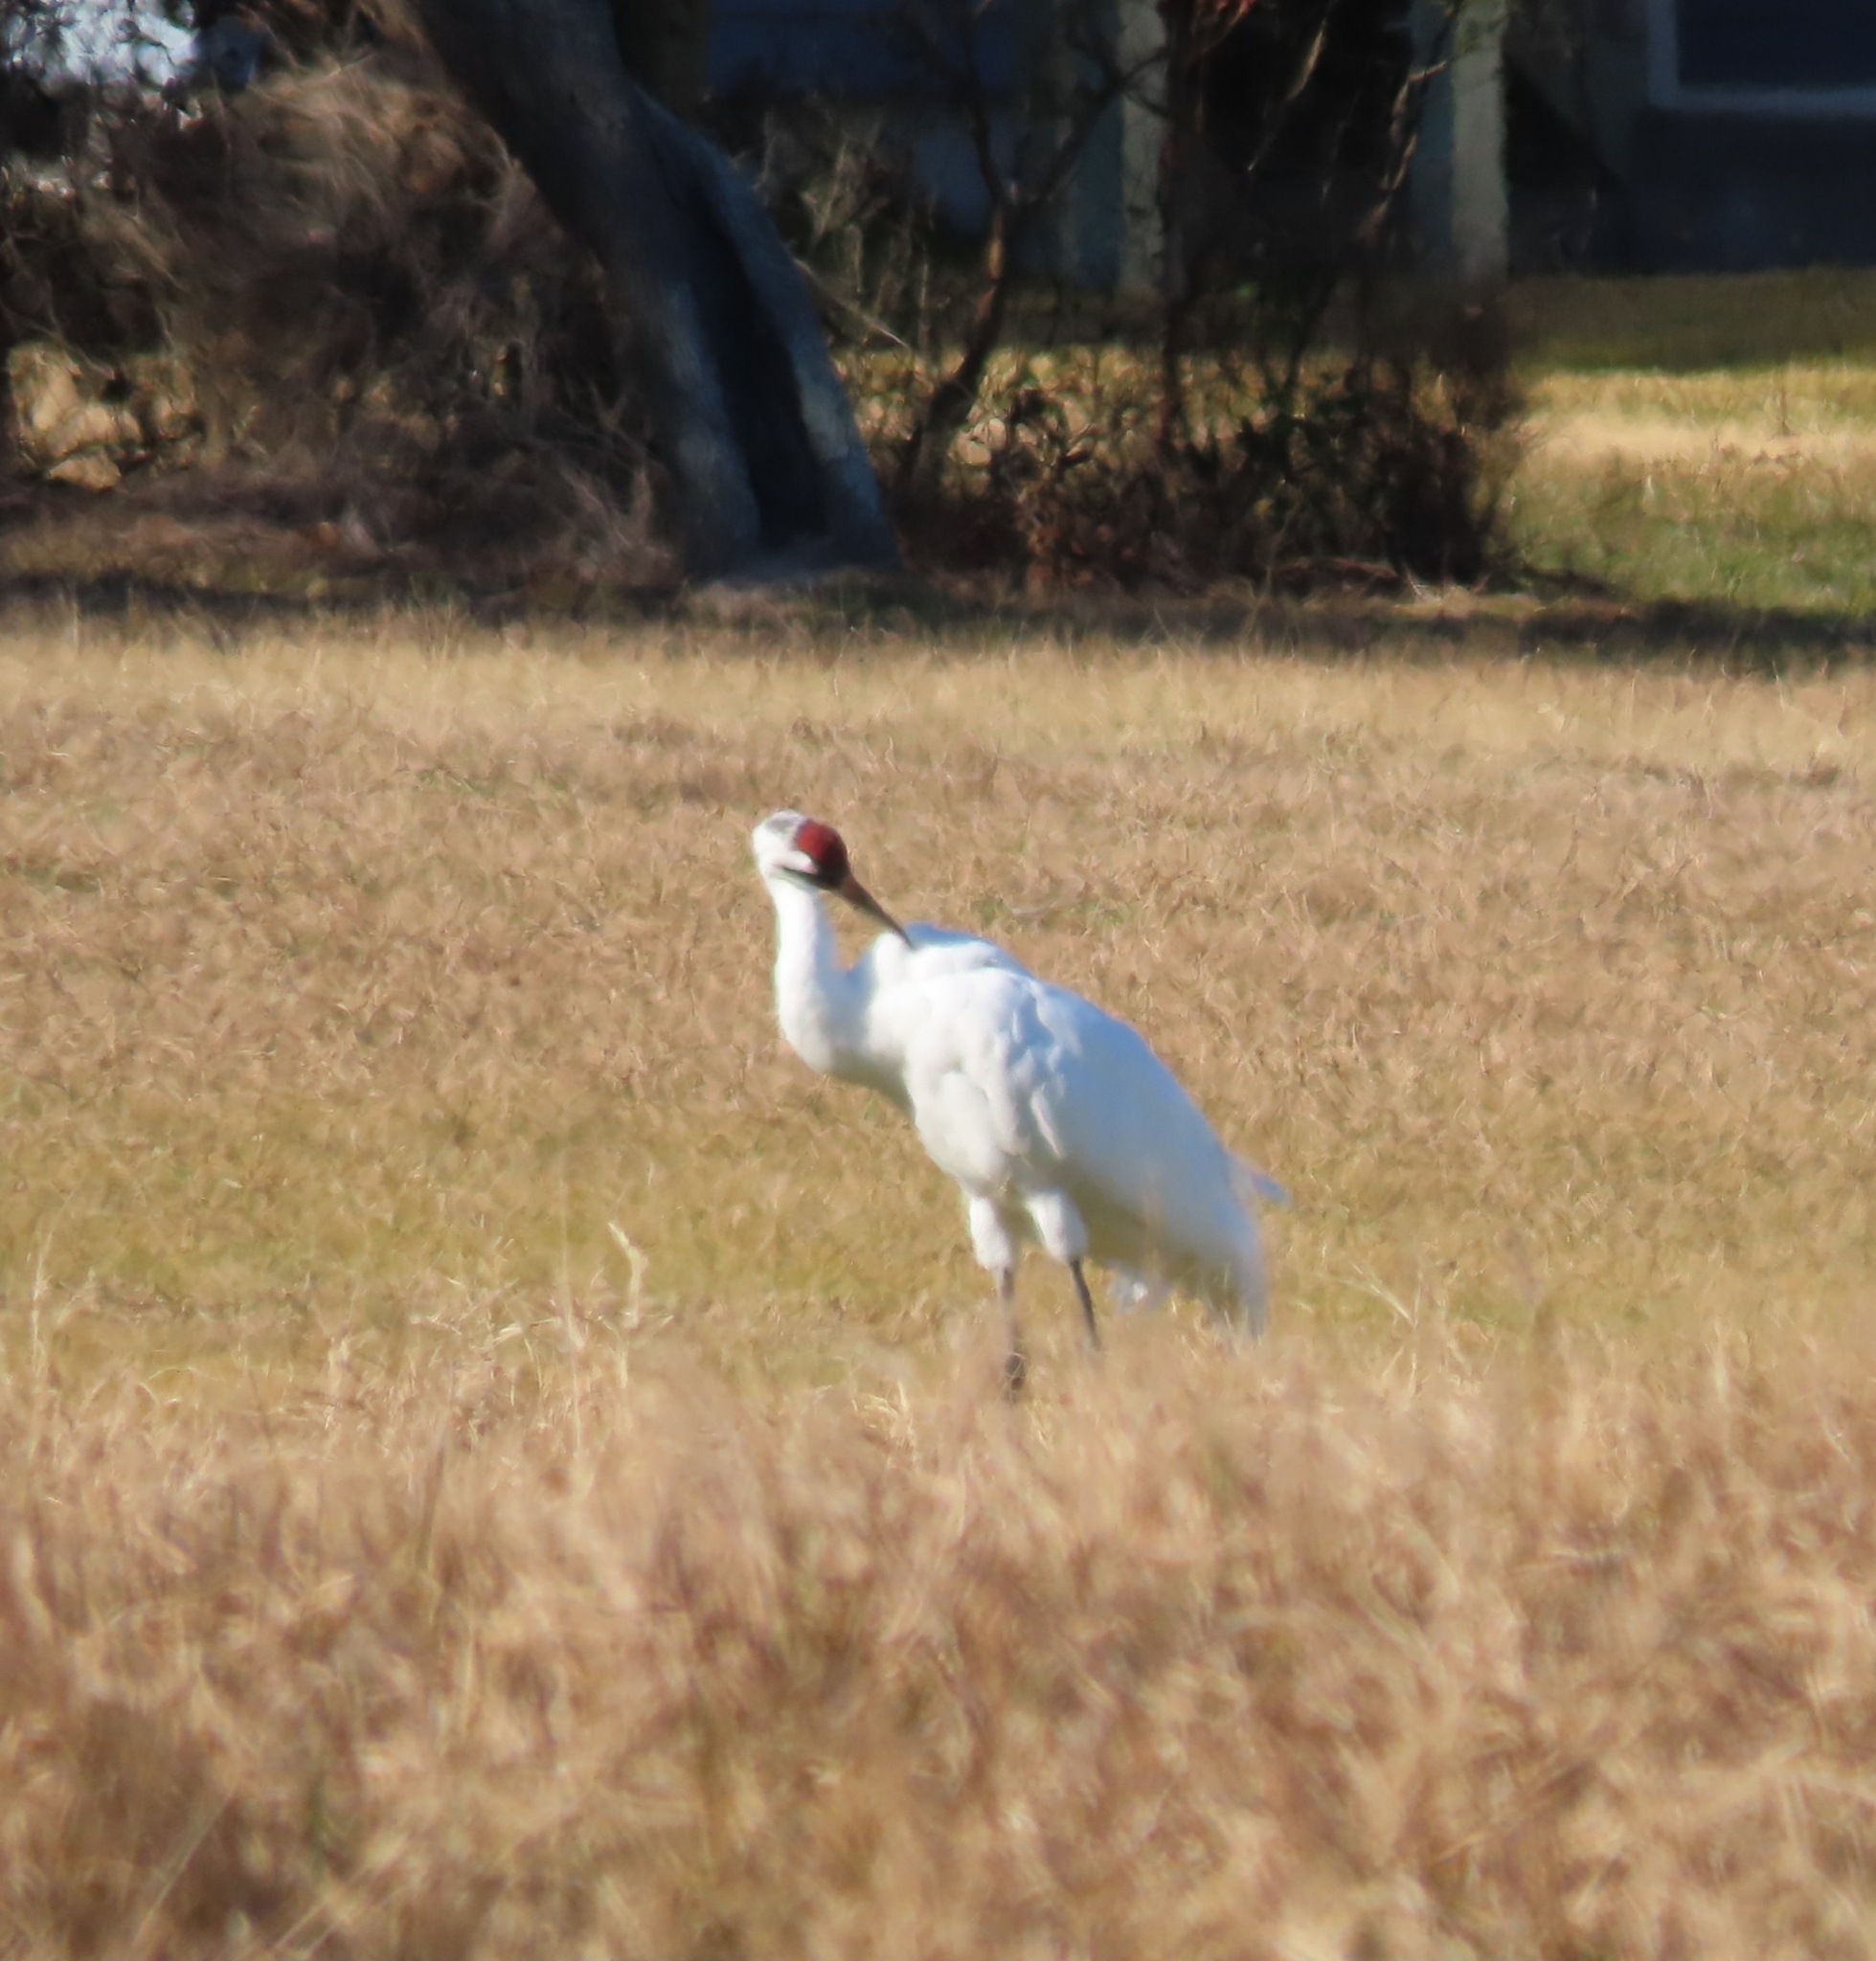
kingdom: Animalia
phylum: Chordata
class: Aves
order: Gruiformes
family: Gruidae
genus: Grus
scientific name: Grus americana
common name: Whooping crane
